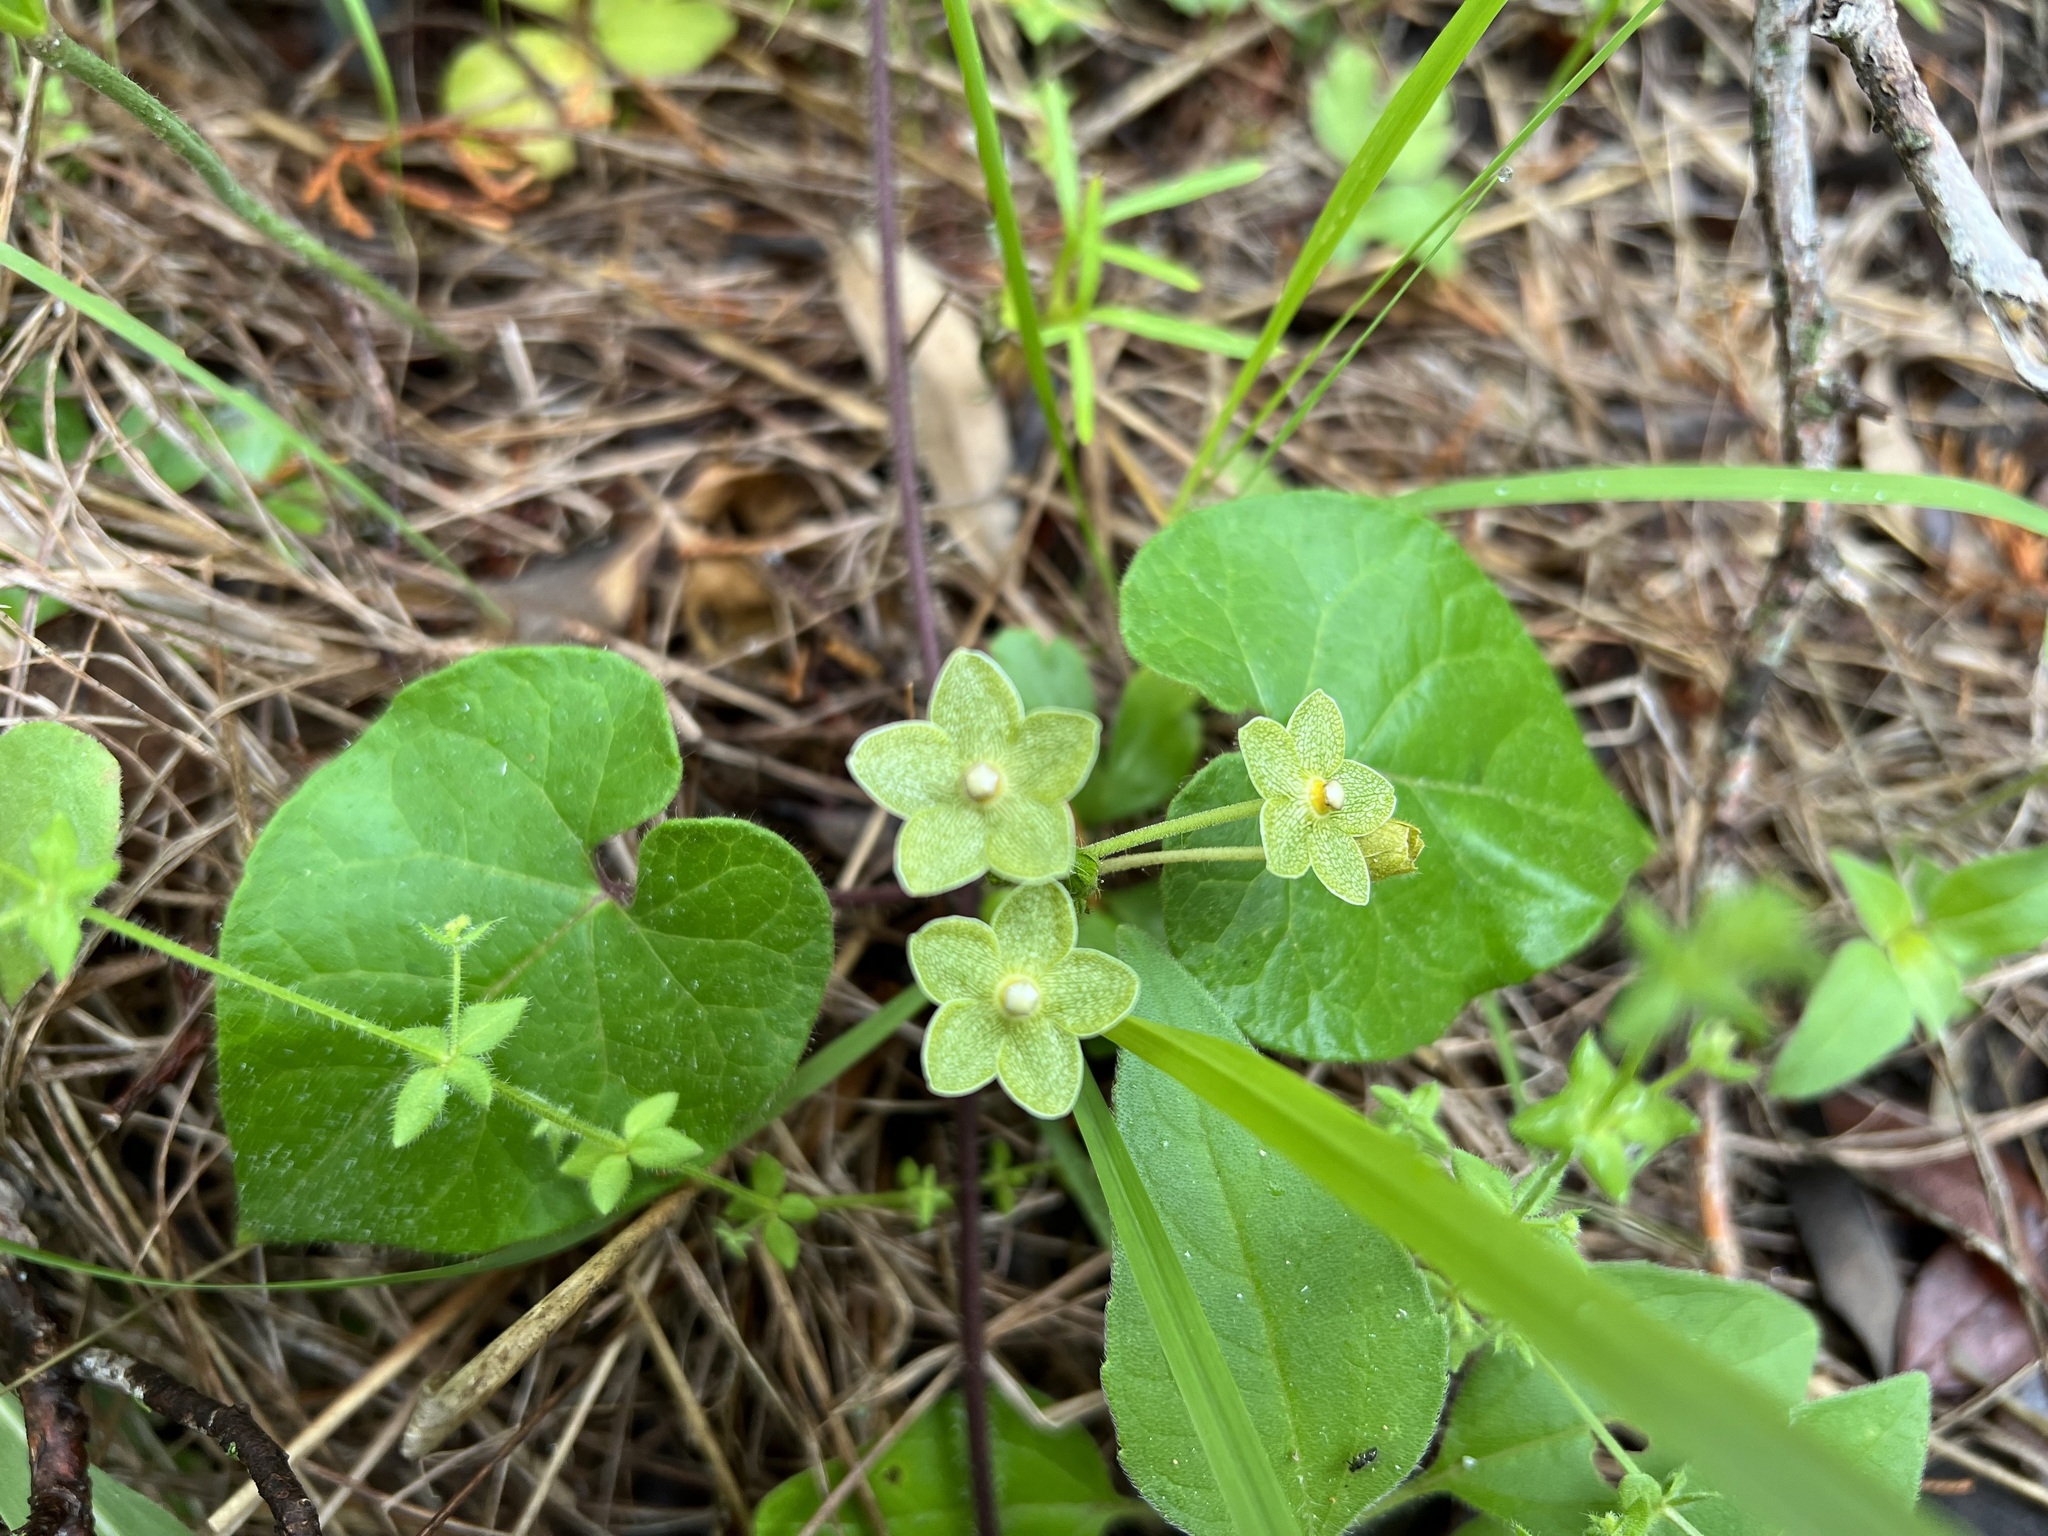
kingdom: Plantae
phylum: Tracheophyta
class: Magnoliopsida
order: Gentianales
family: Apocynaceae
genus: Dictyanthus
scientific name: Dictyanthus reticulatus
